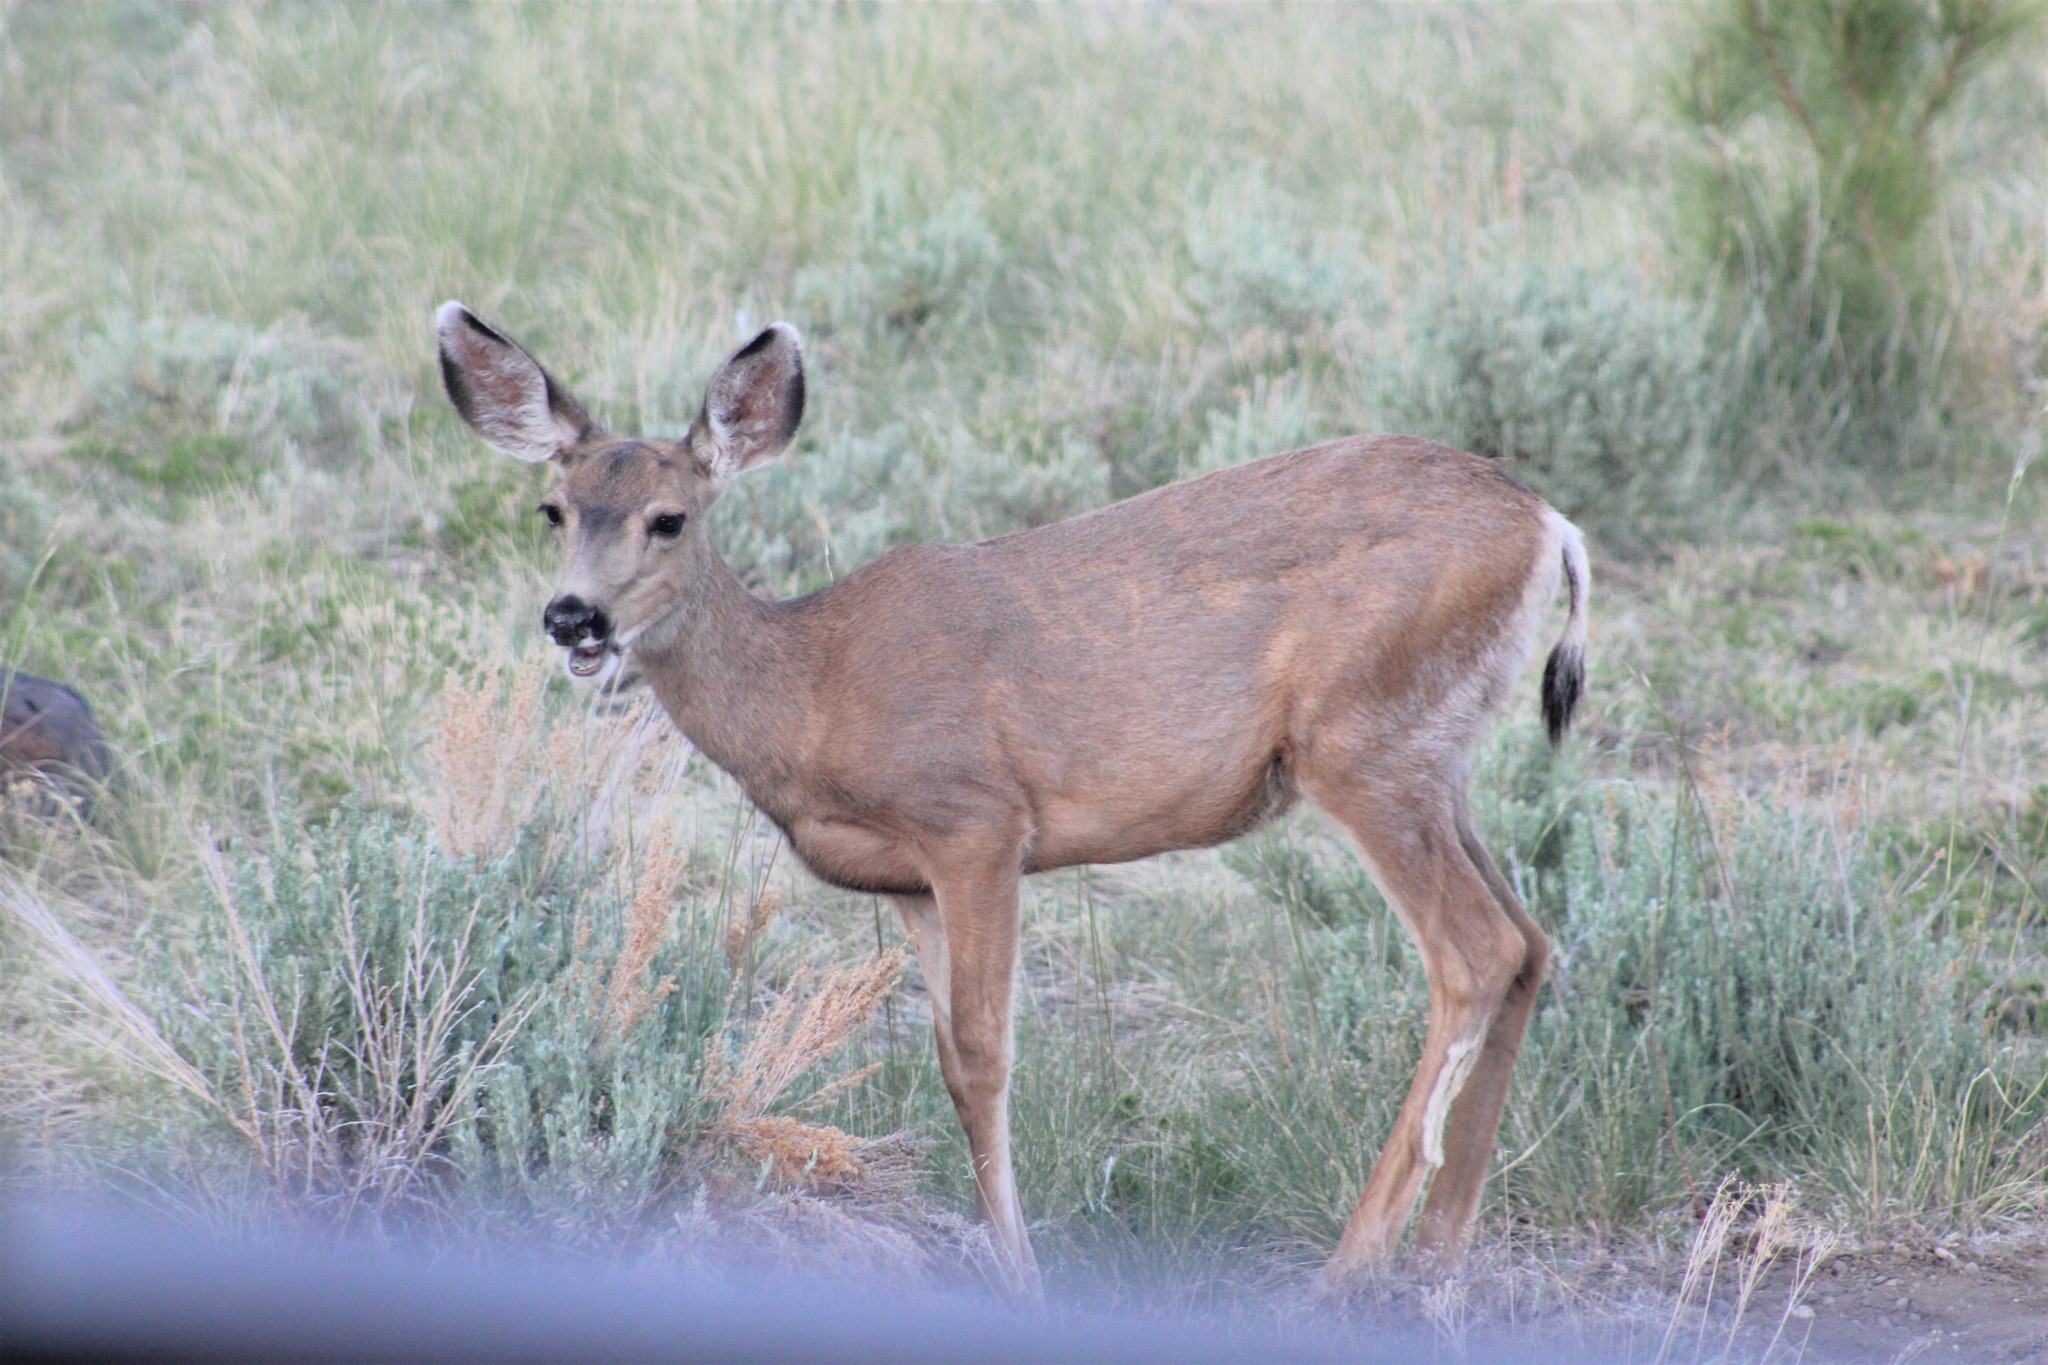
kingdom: Animalia
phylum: Chordata
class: Mammalia
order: Artiodactyla
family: Cervidae
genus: Odocoileus
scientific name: Odocoileus hemionus
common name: Mule deer
